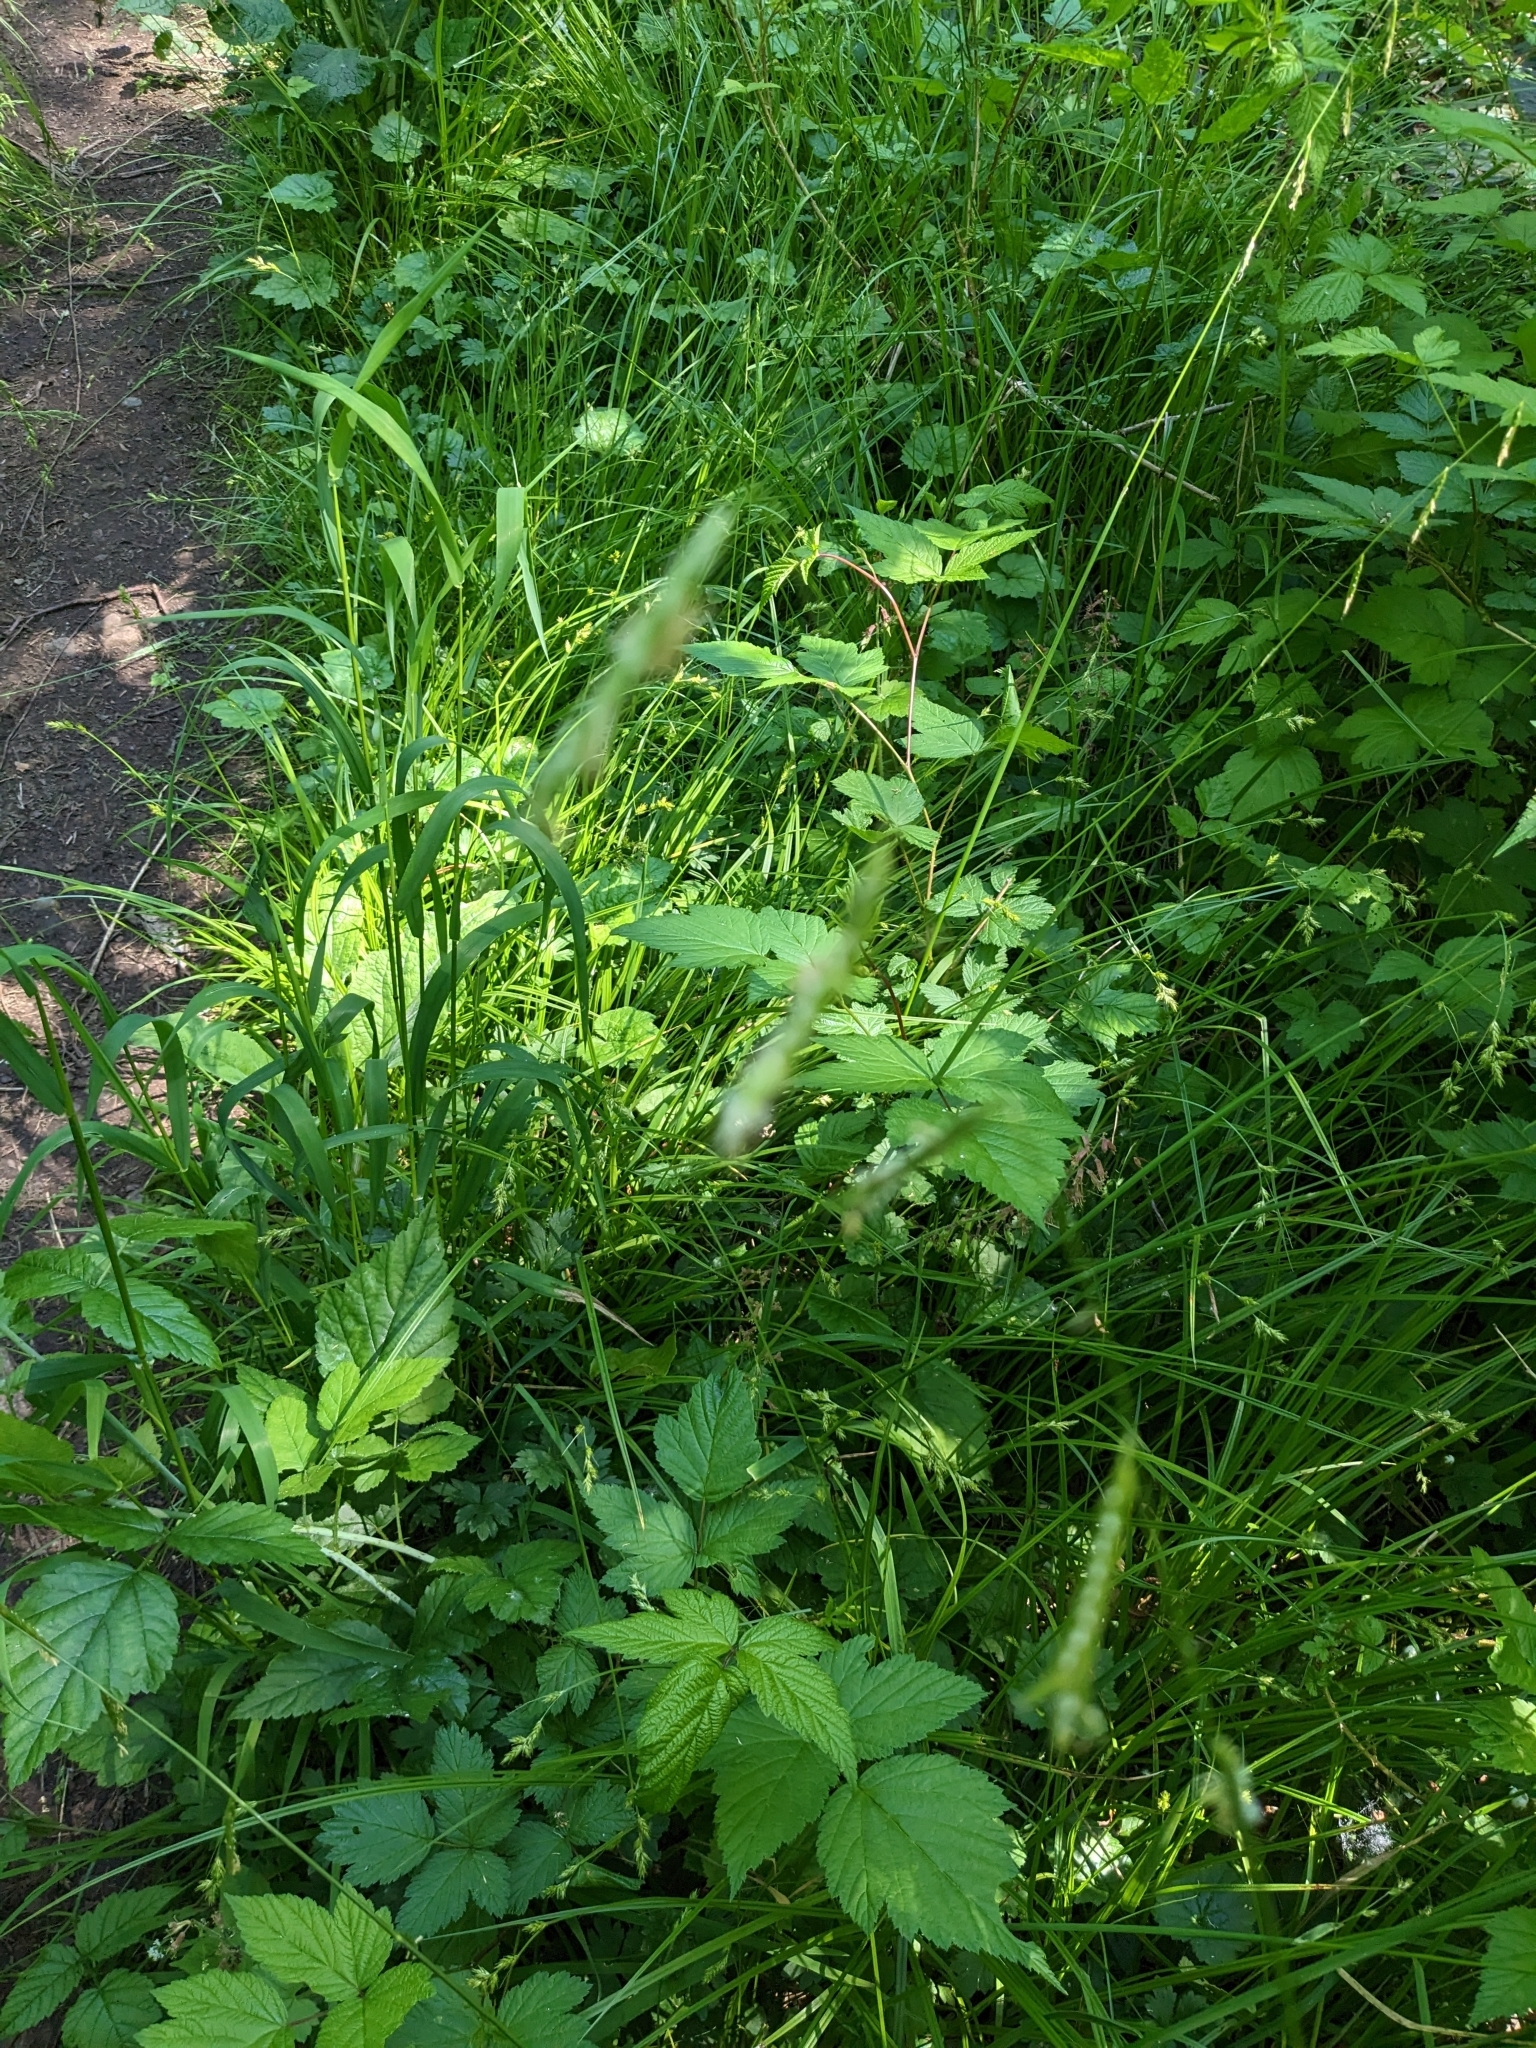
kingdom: Plantae
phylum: Tracheophyta
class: Liliopsida
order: Poales
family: Poaceae
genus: Pleuropogon
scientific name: Pleuropogon refractus
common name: Nodding false semaphoregrass
